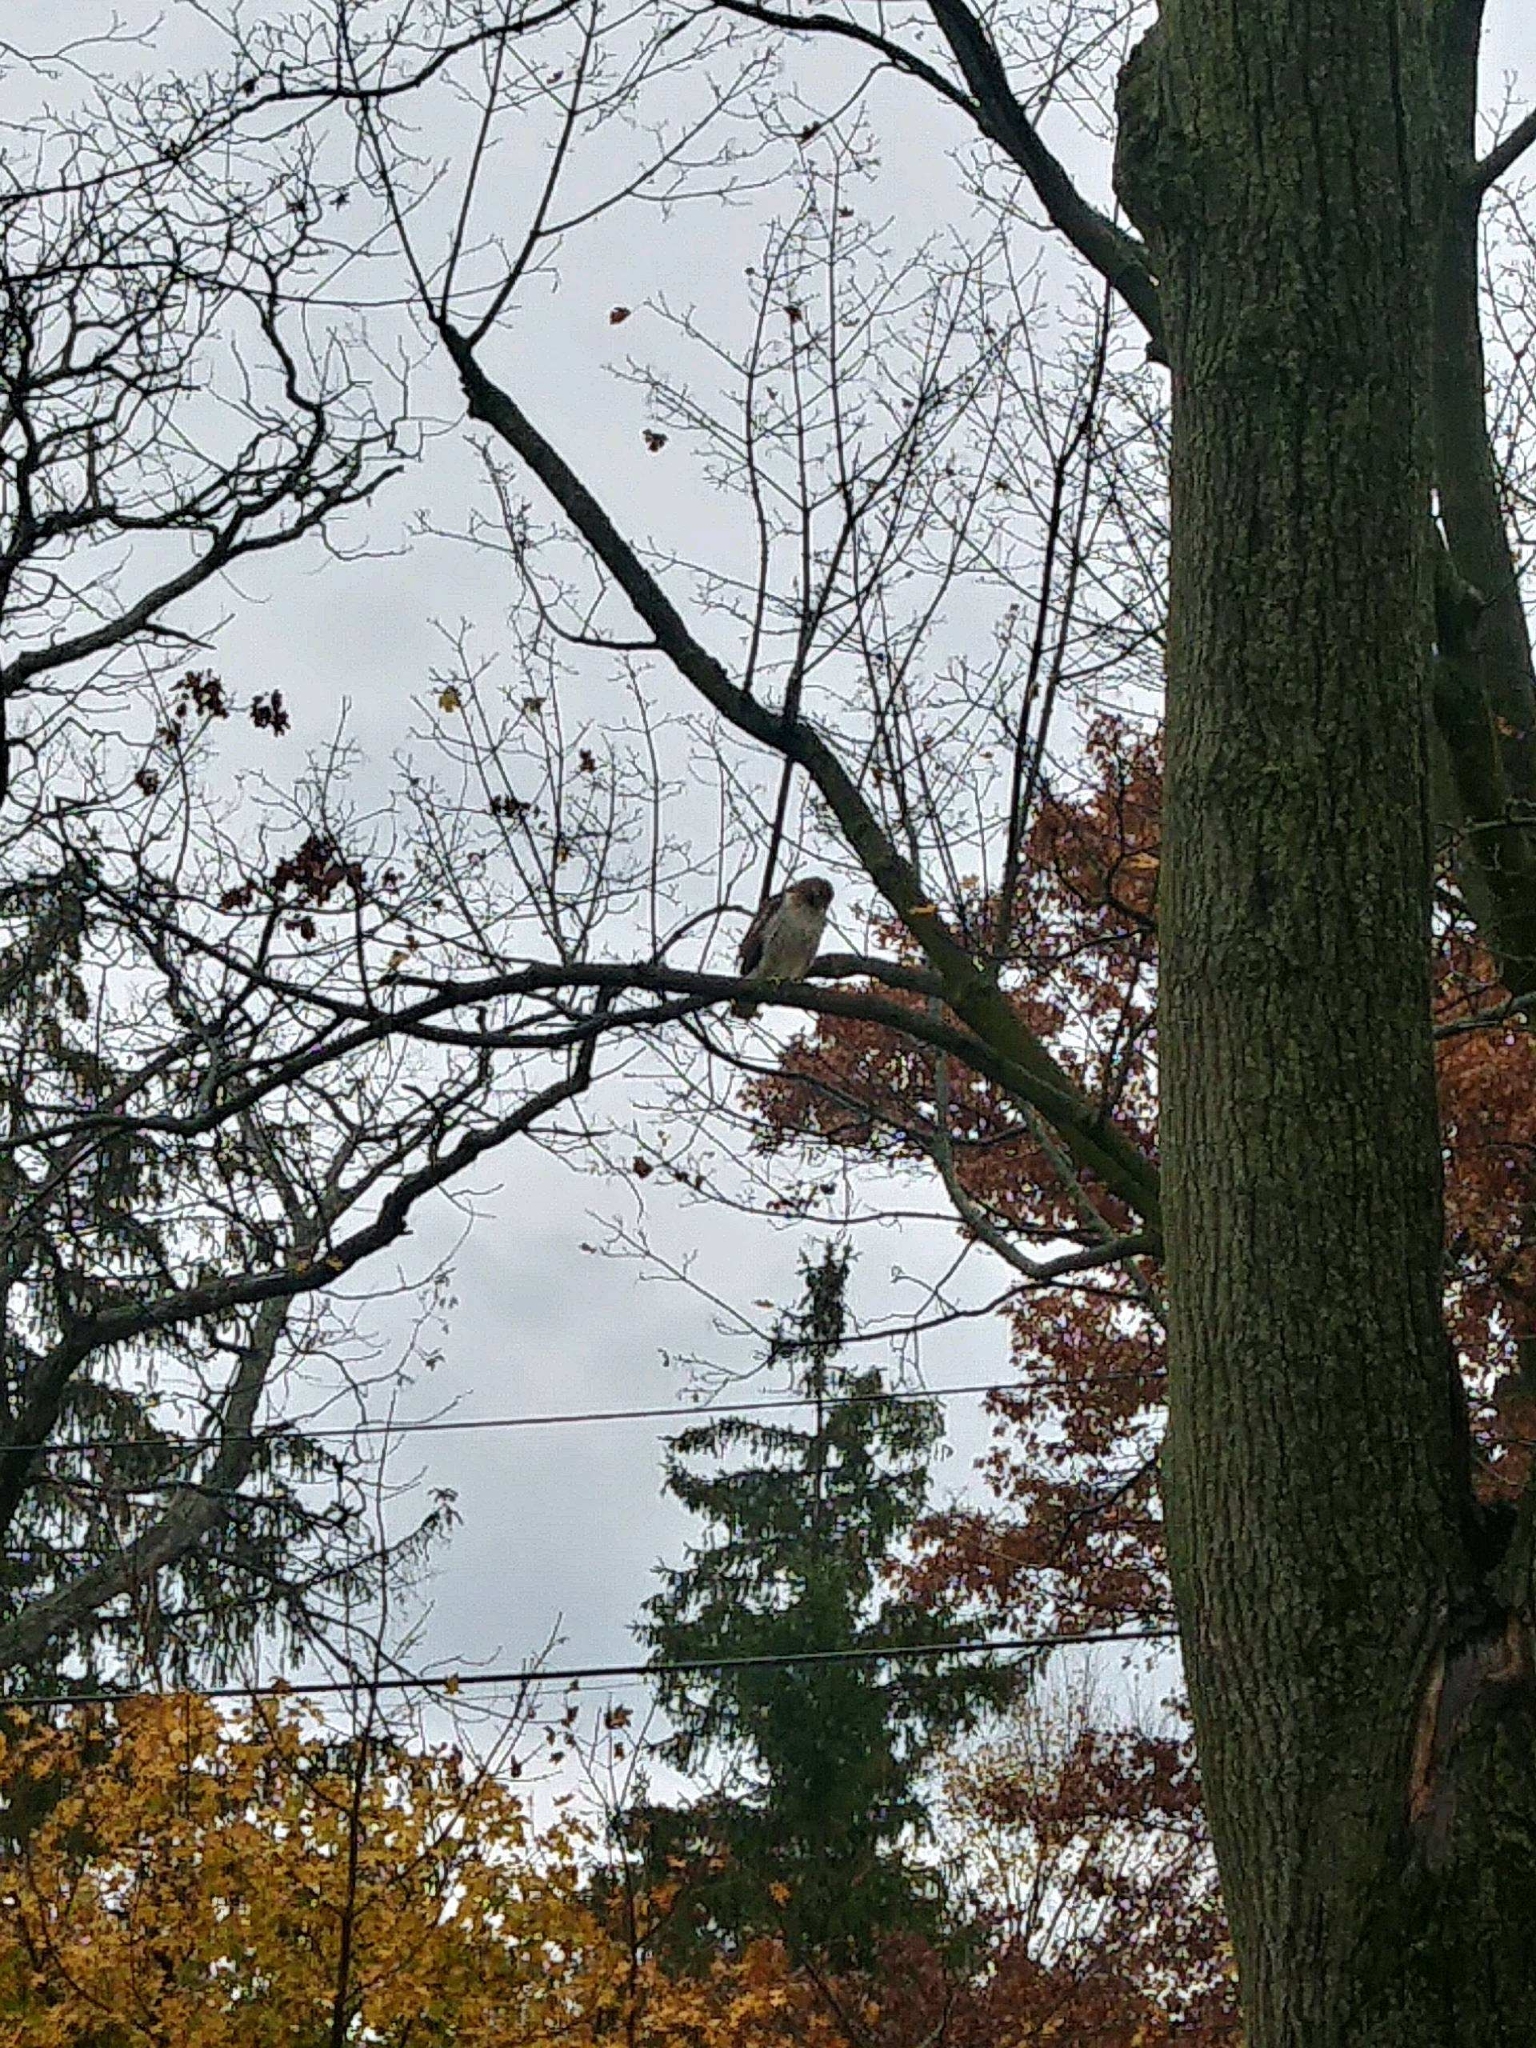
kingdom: Animalia
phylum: Chordata
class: Aves
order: Accipitriformes
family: Accipitridae
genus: Buteo
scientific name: Buteo jamaicensis
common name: Red-tailed hawk
